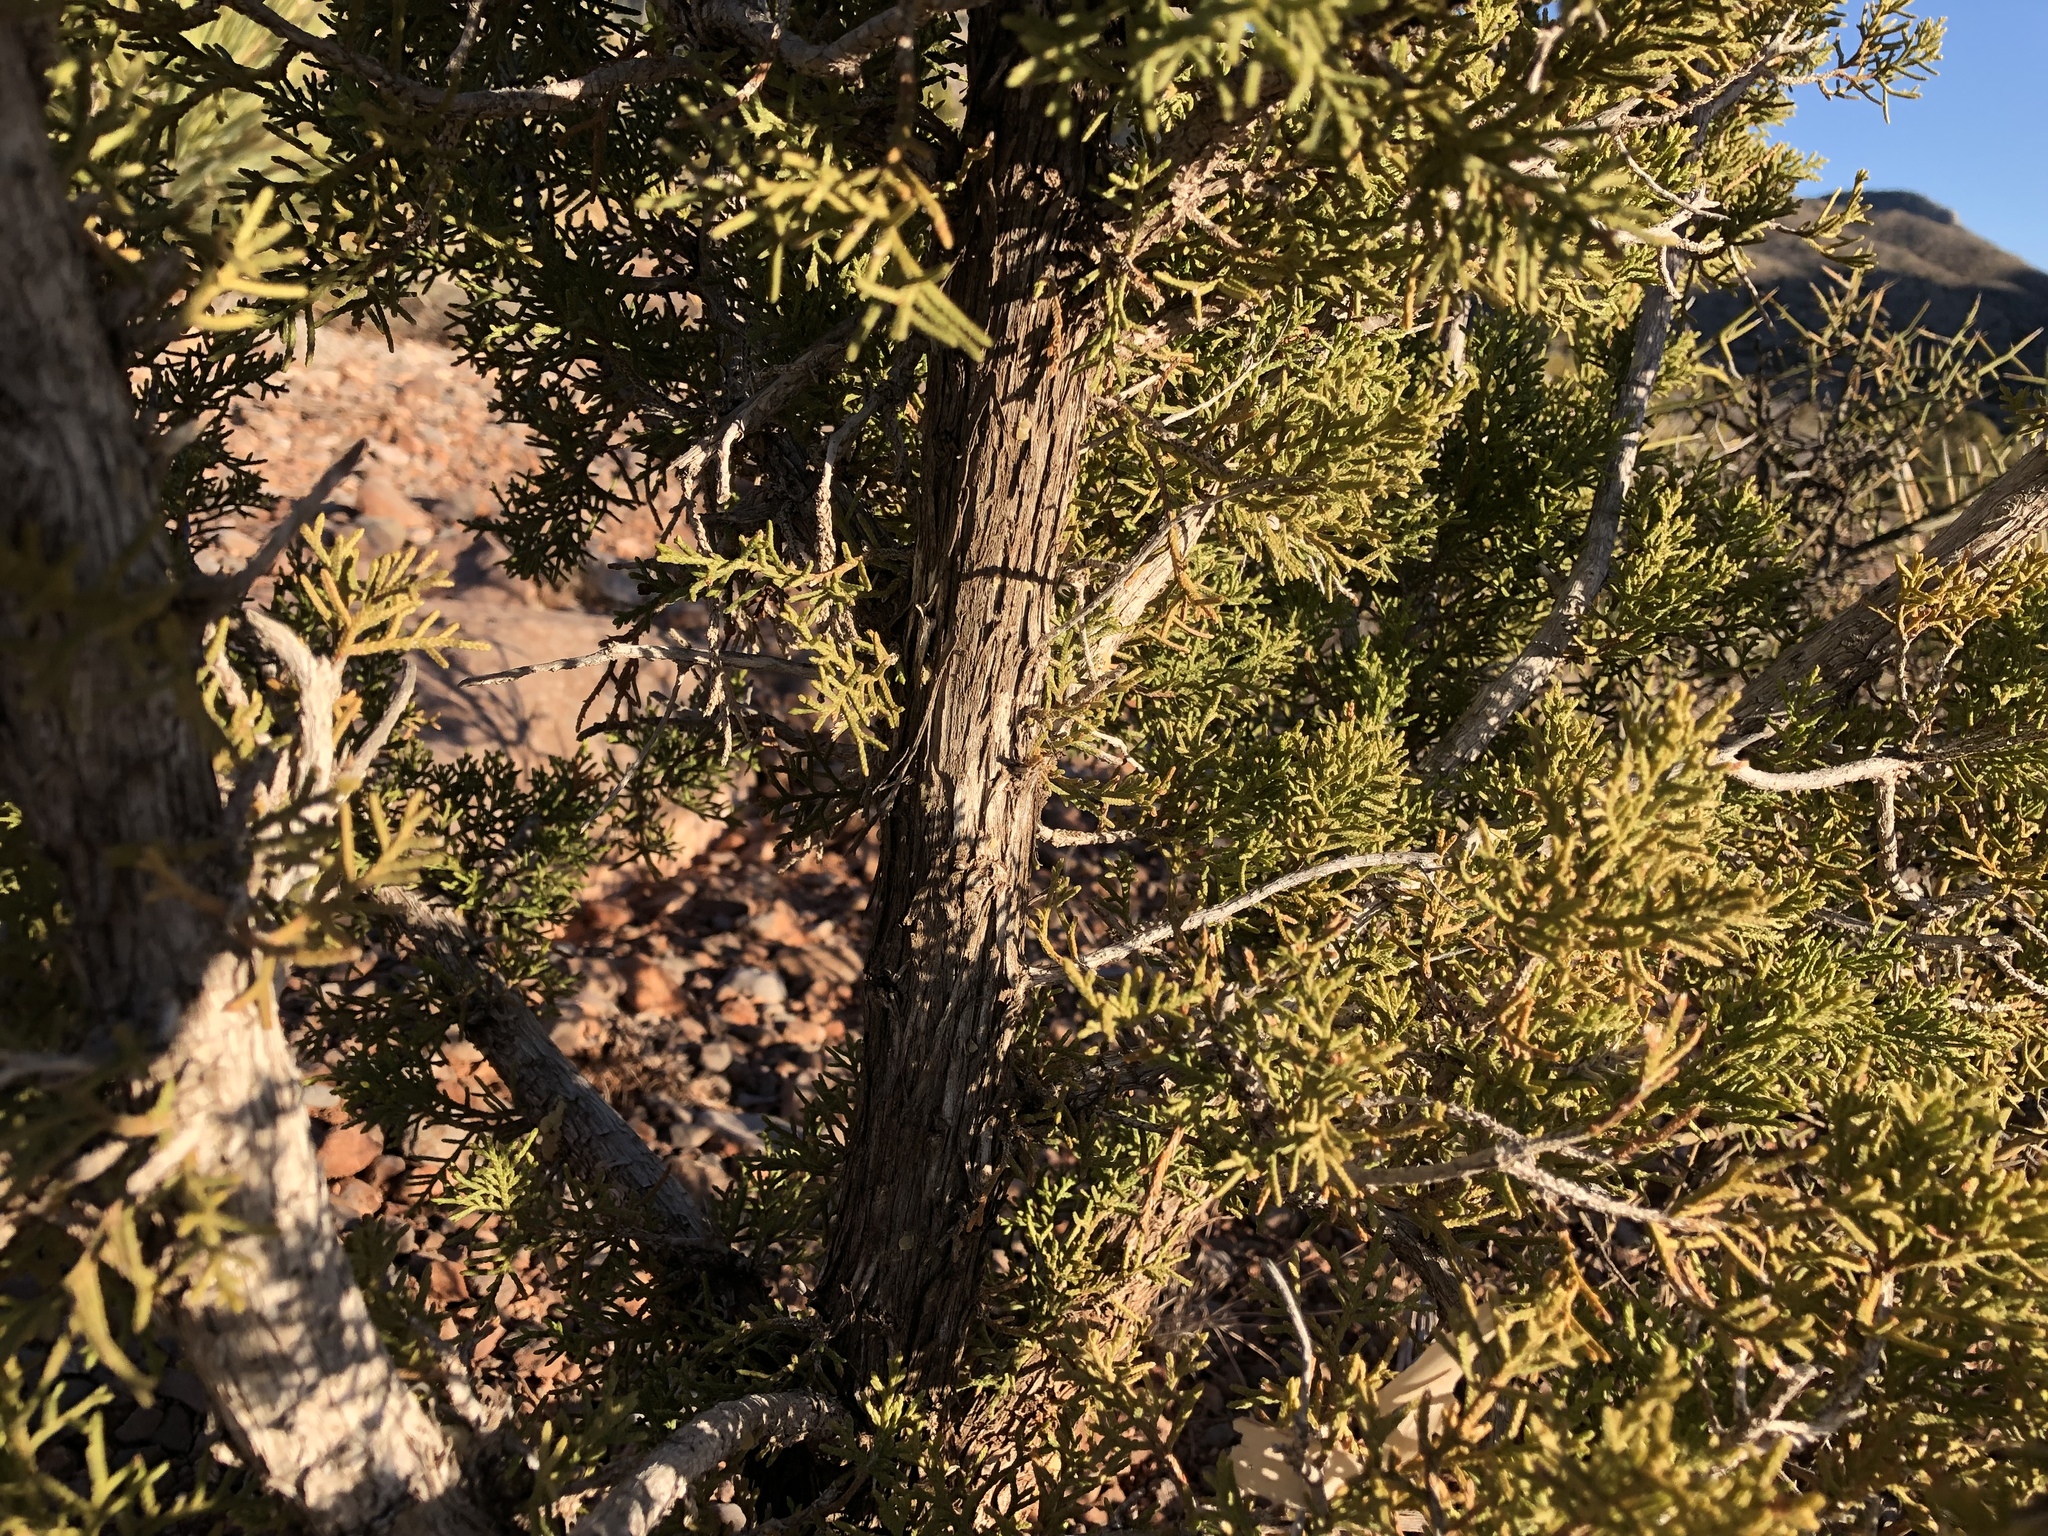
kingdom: Plantae
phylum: Tracheophyta
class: Pinopsida
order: Pinales
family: Cupressaceae
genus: Juniperus
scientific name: Juniperus monosperma
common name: One-seed juniper
